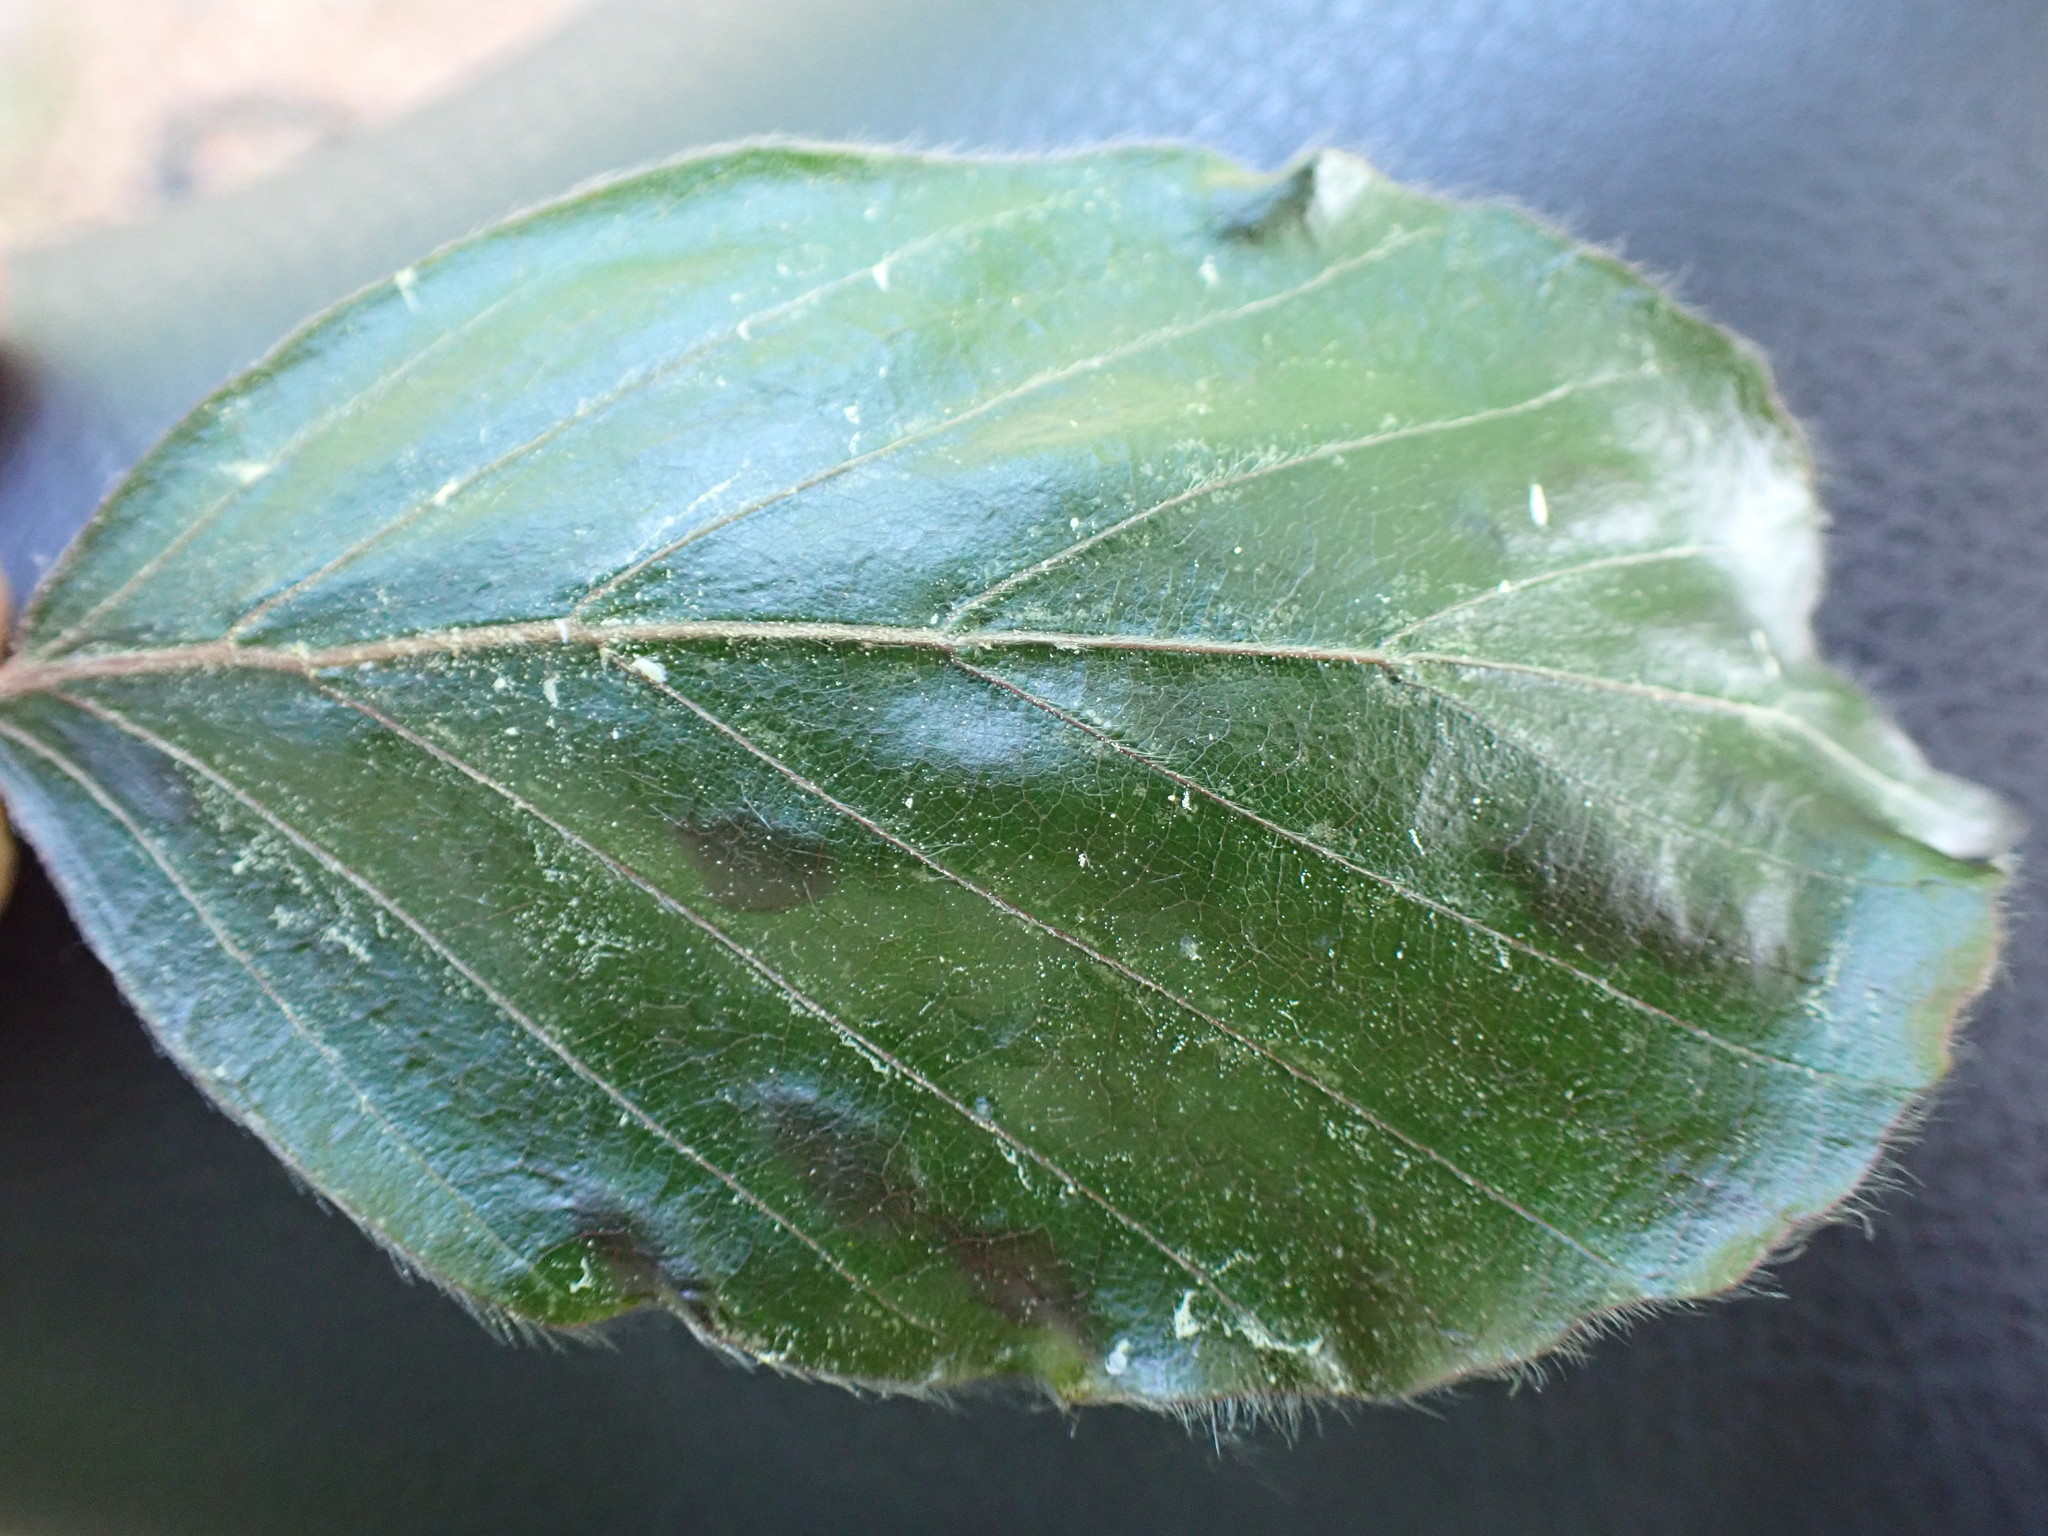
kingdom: Animalia
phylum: Arthropoda
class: Arachnida
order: Trombidiformes
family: Eriophyidae
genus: Aceria
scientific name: Aceria nervisequa
